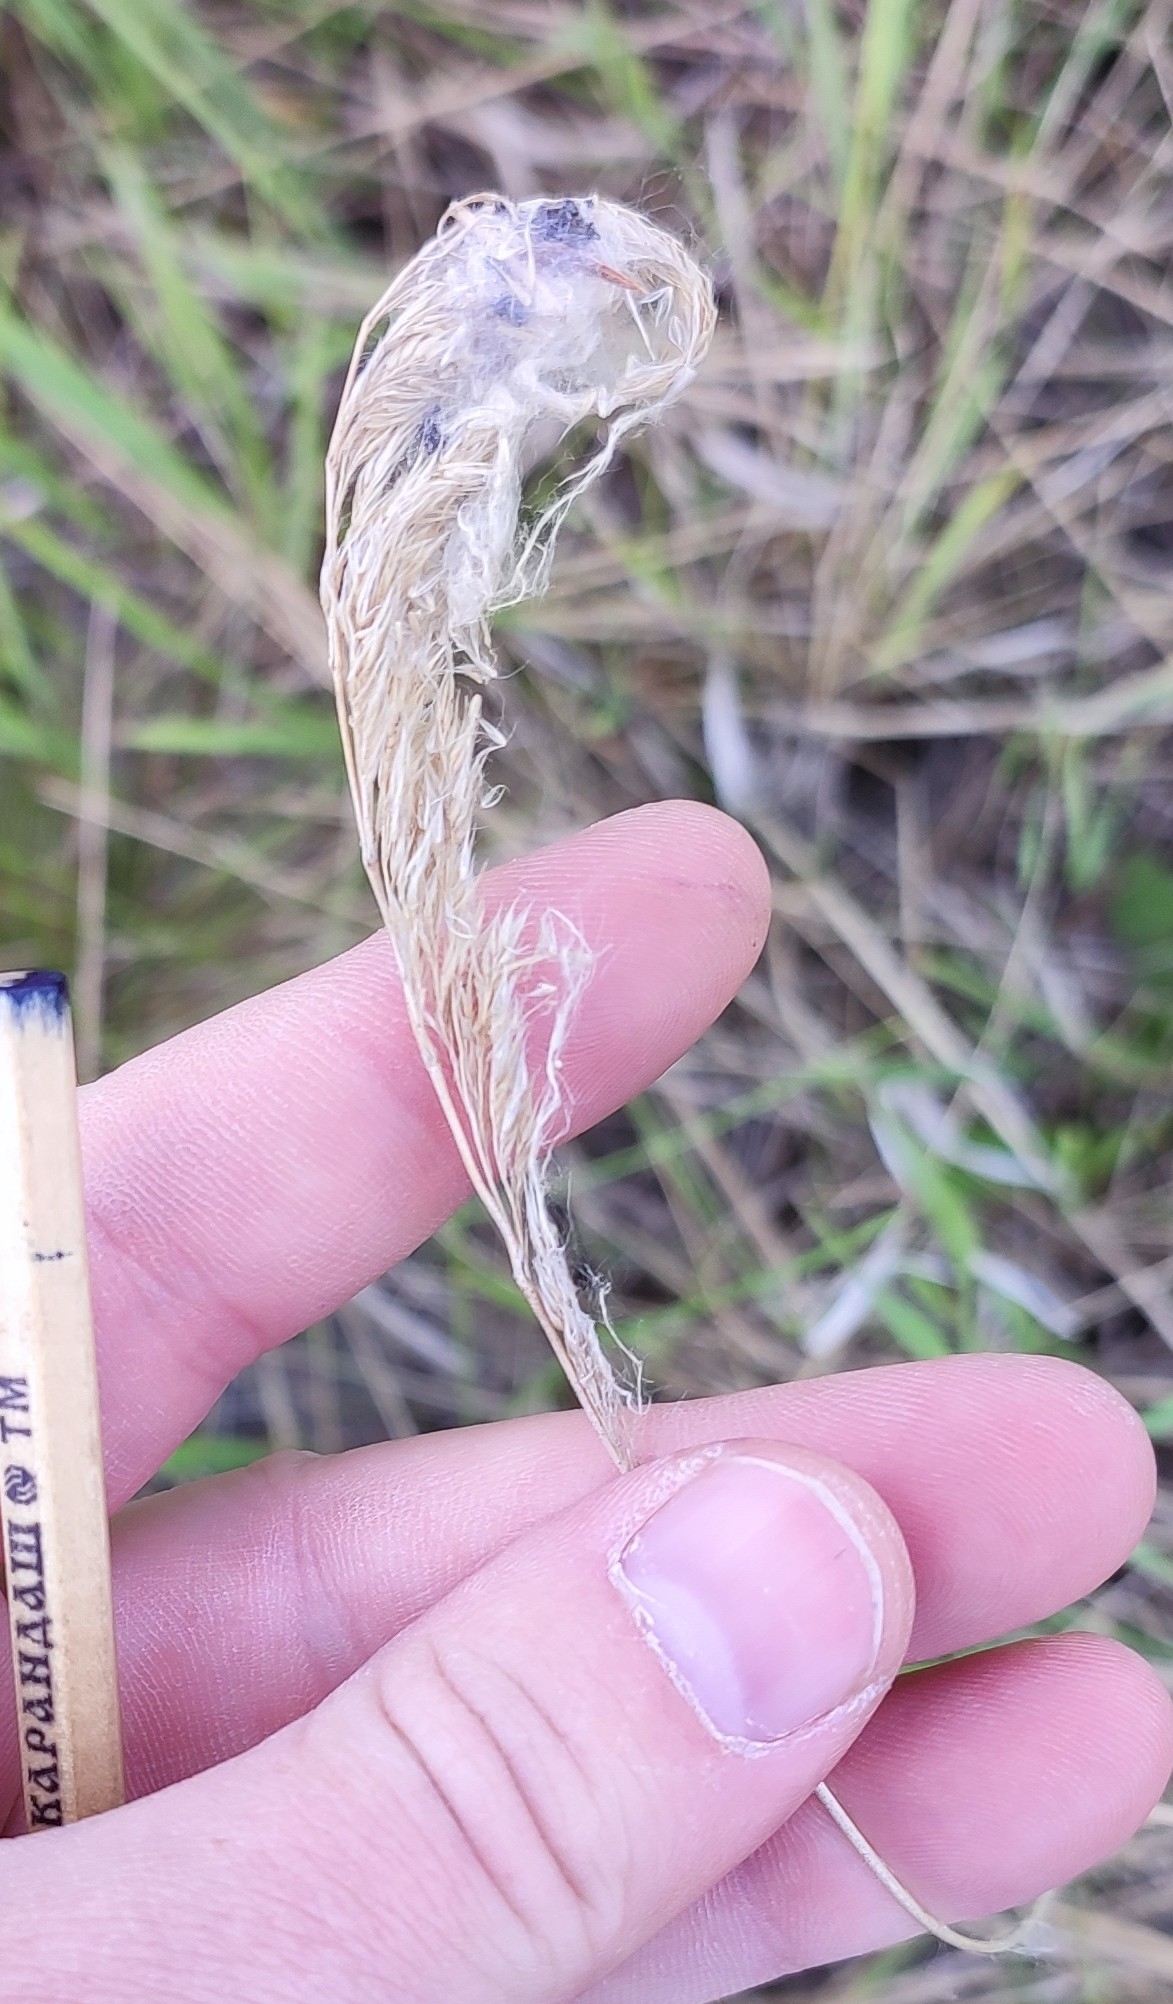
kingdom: Plantae
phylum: Tracheophyta
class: Liliopsida
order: Poales
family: Poaceae
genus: Calamagrostis
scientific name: Calamagrostis epigejos
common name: Wood small-reed
